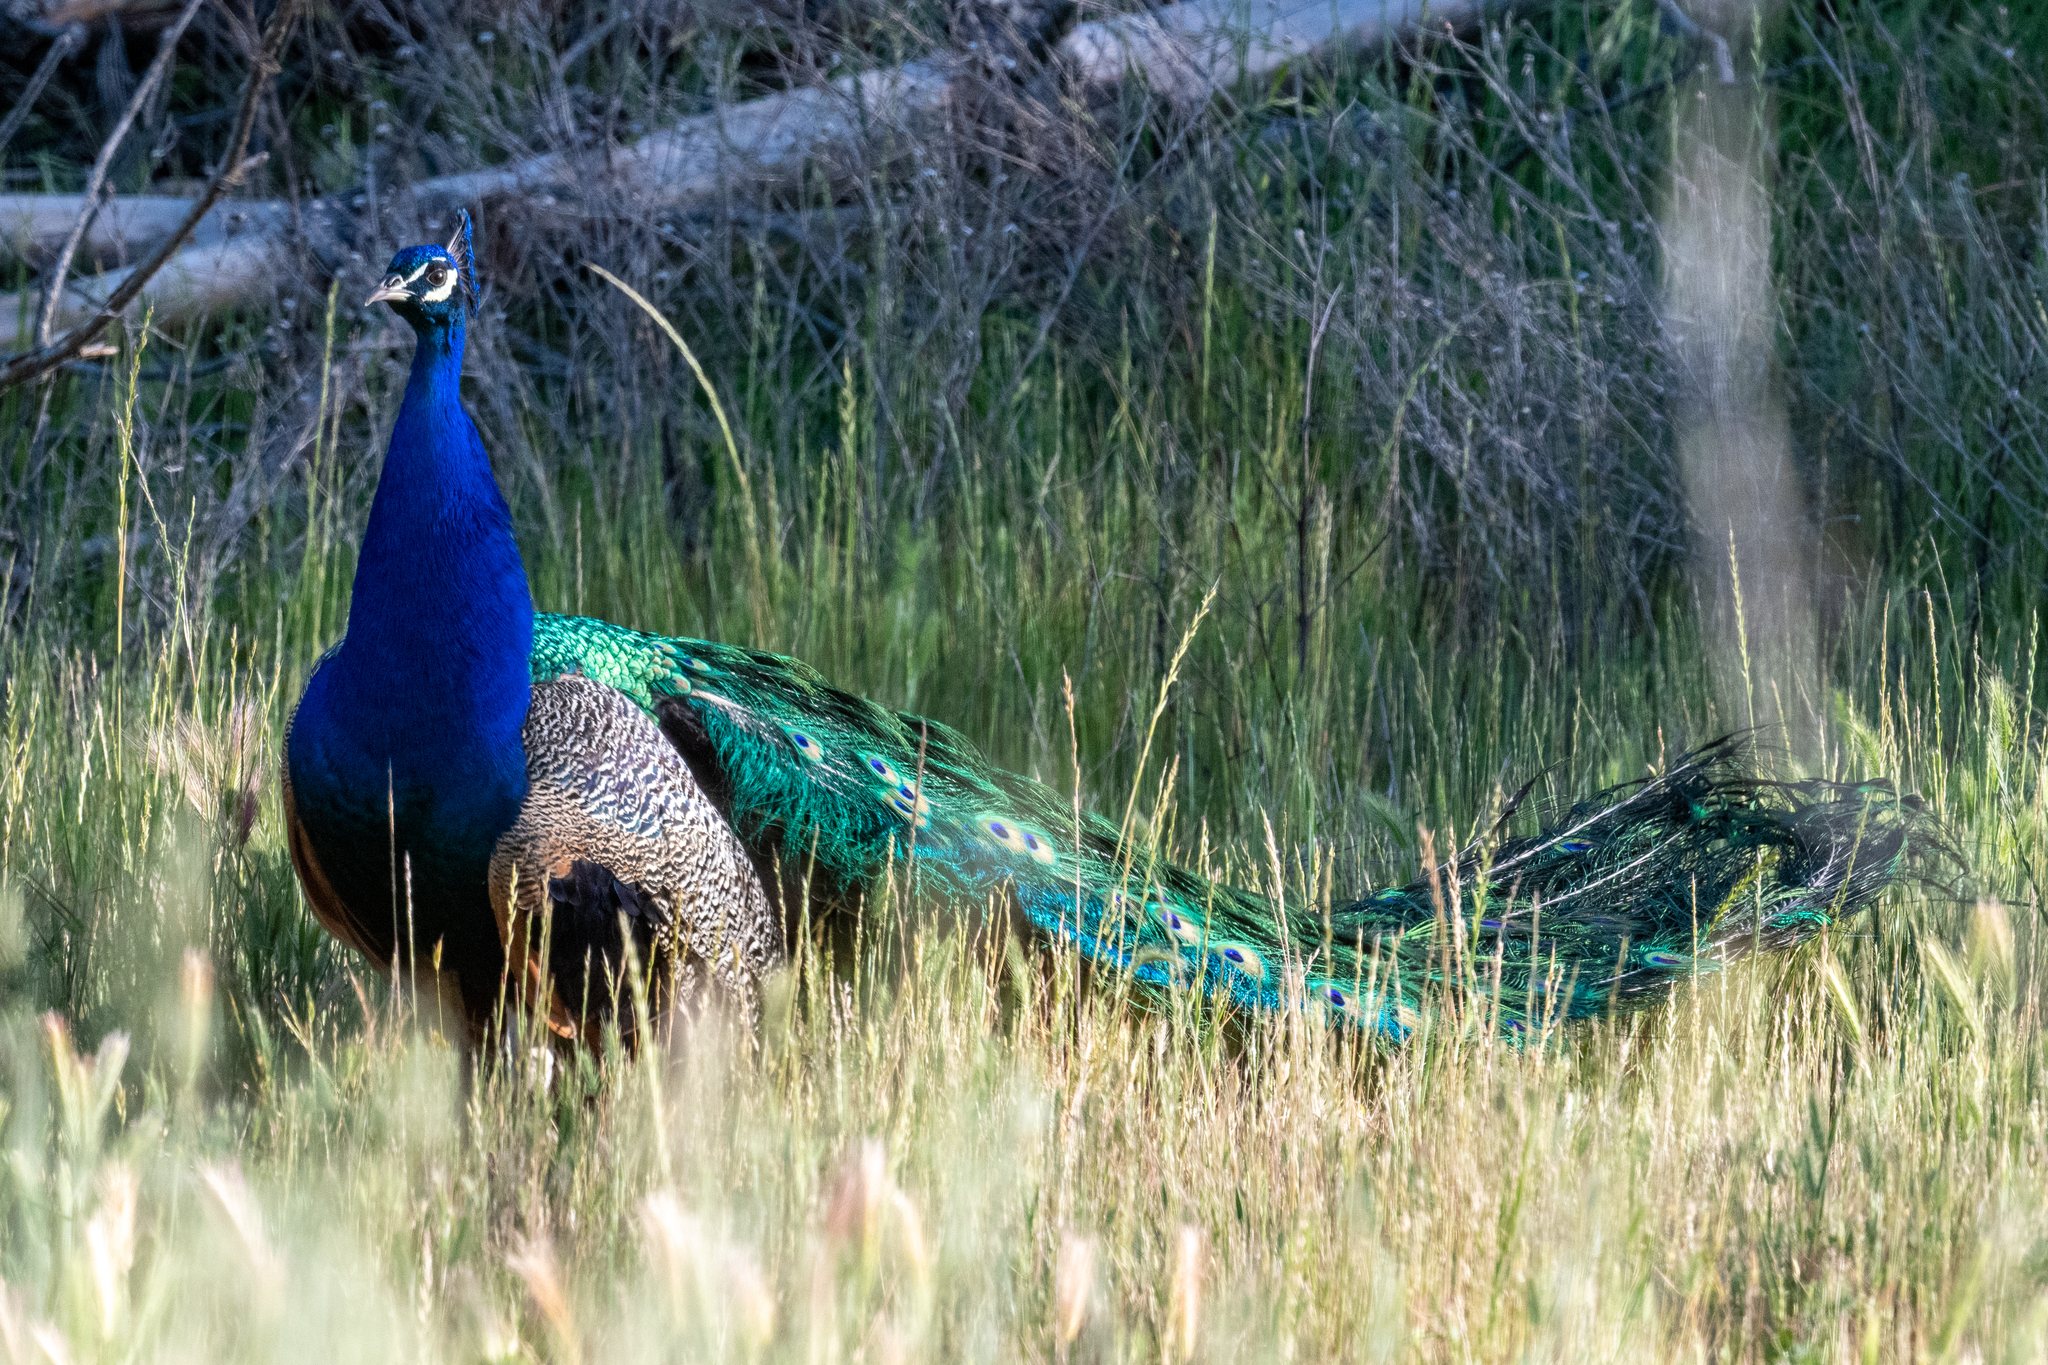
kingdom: Animalia
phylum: Chordata
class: Aves
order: Galliformes
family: Phasianidae
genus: Pavo
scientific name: Pavo cristatus
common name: Indian peafowl
